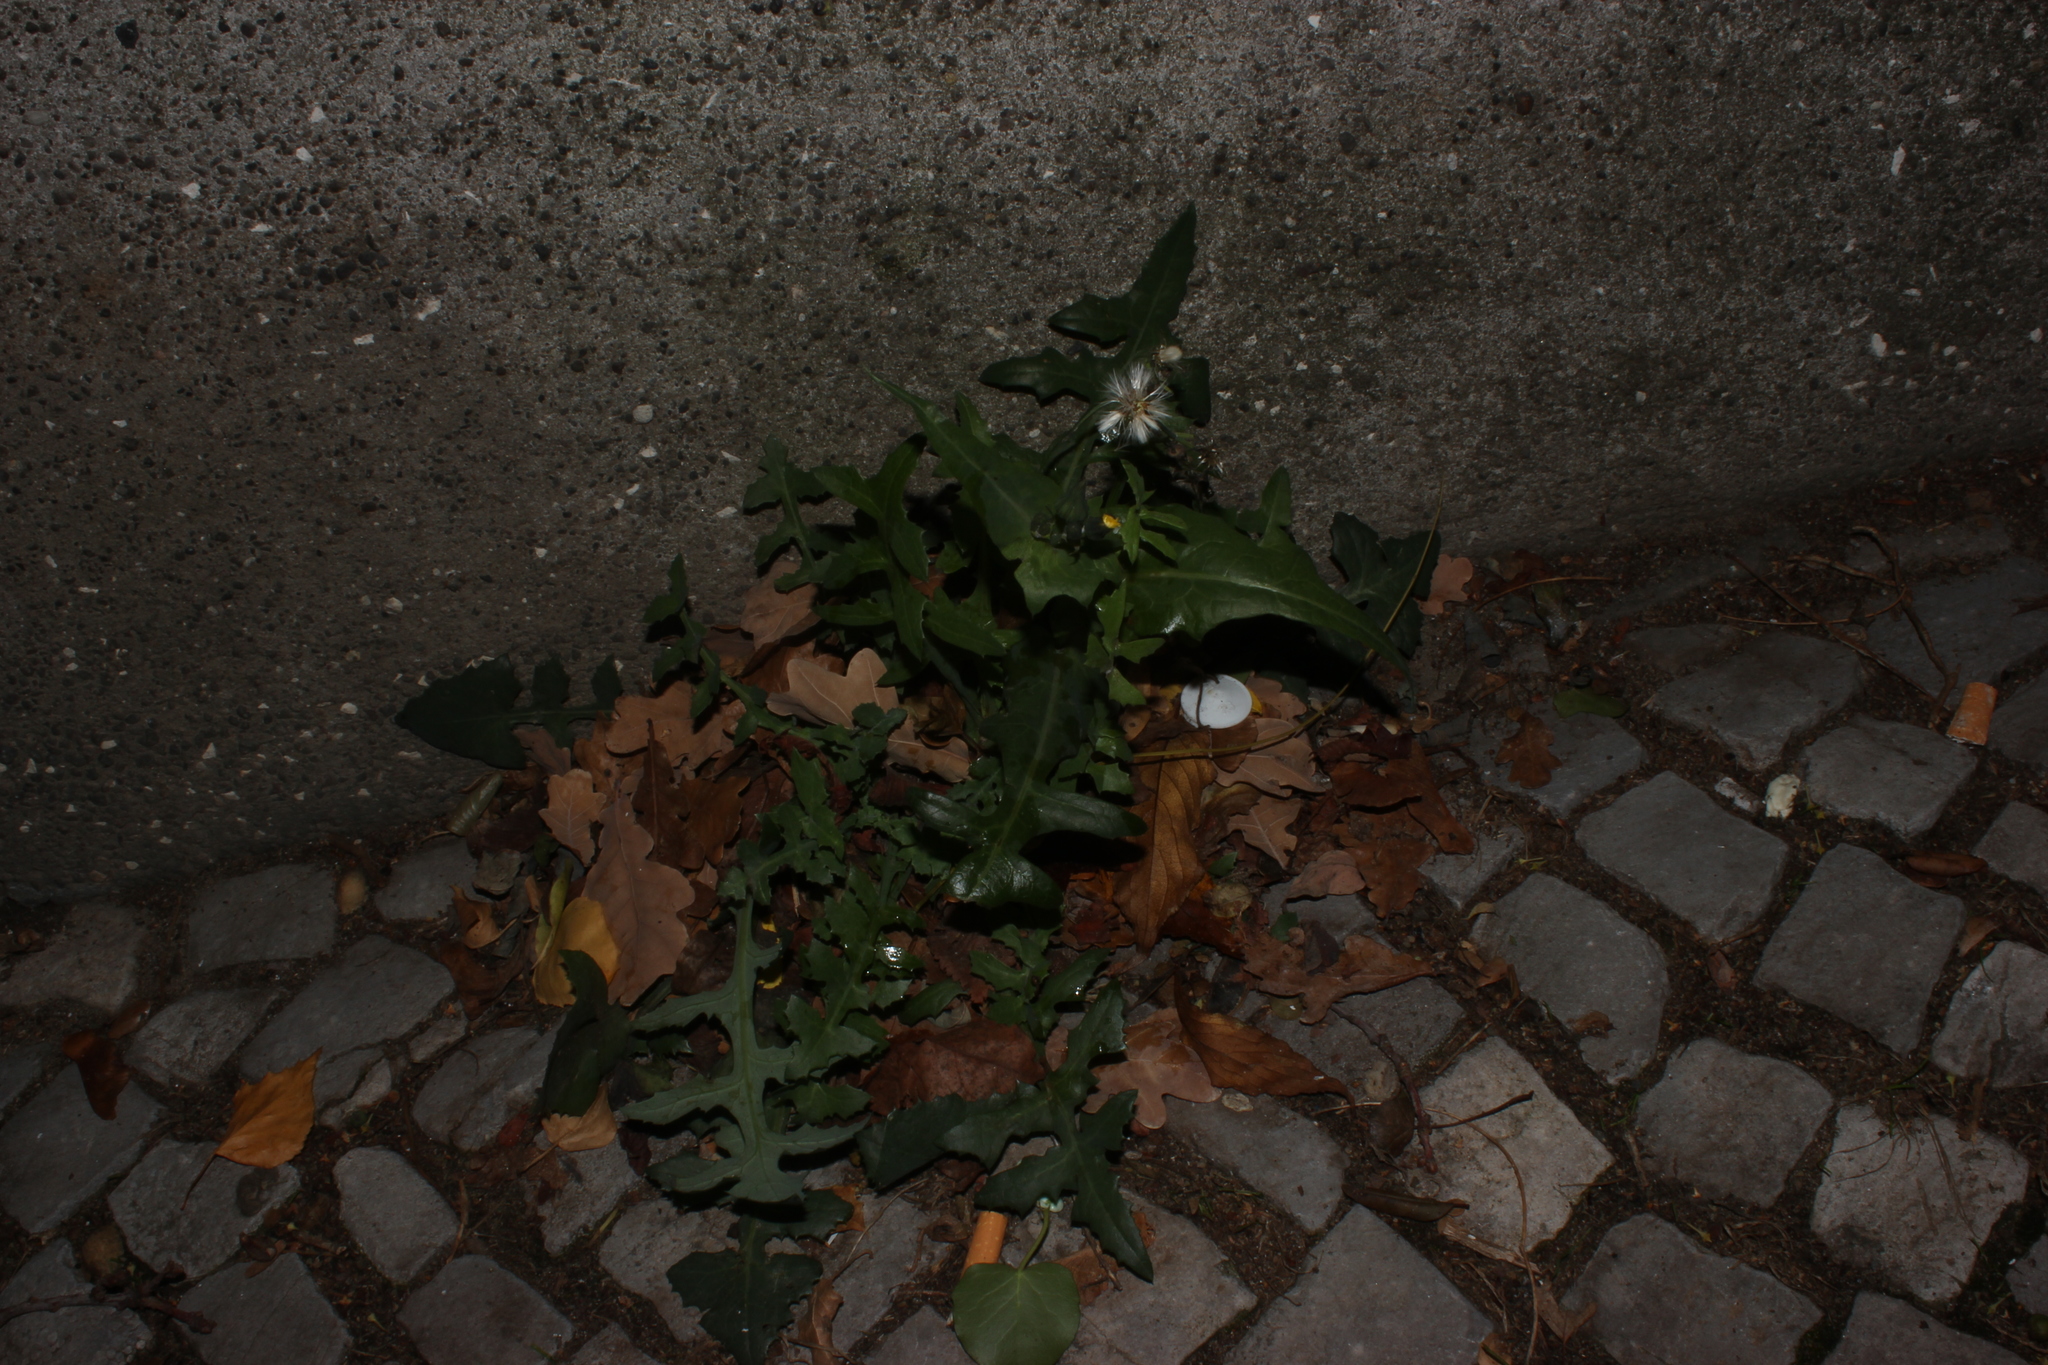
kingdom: Plantae
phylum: Tracheophyta
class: Magnoliopsida
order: Asterales
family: Asteraceae
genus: Sonchus
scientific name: Sonchus oleraceus
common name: Common sowthistle
